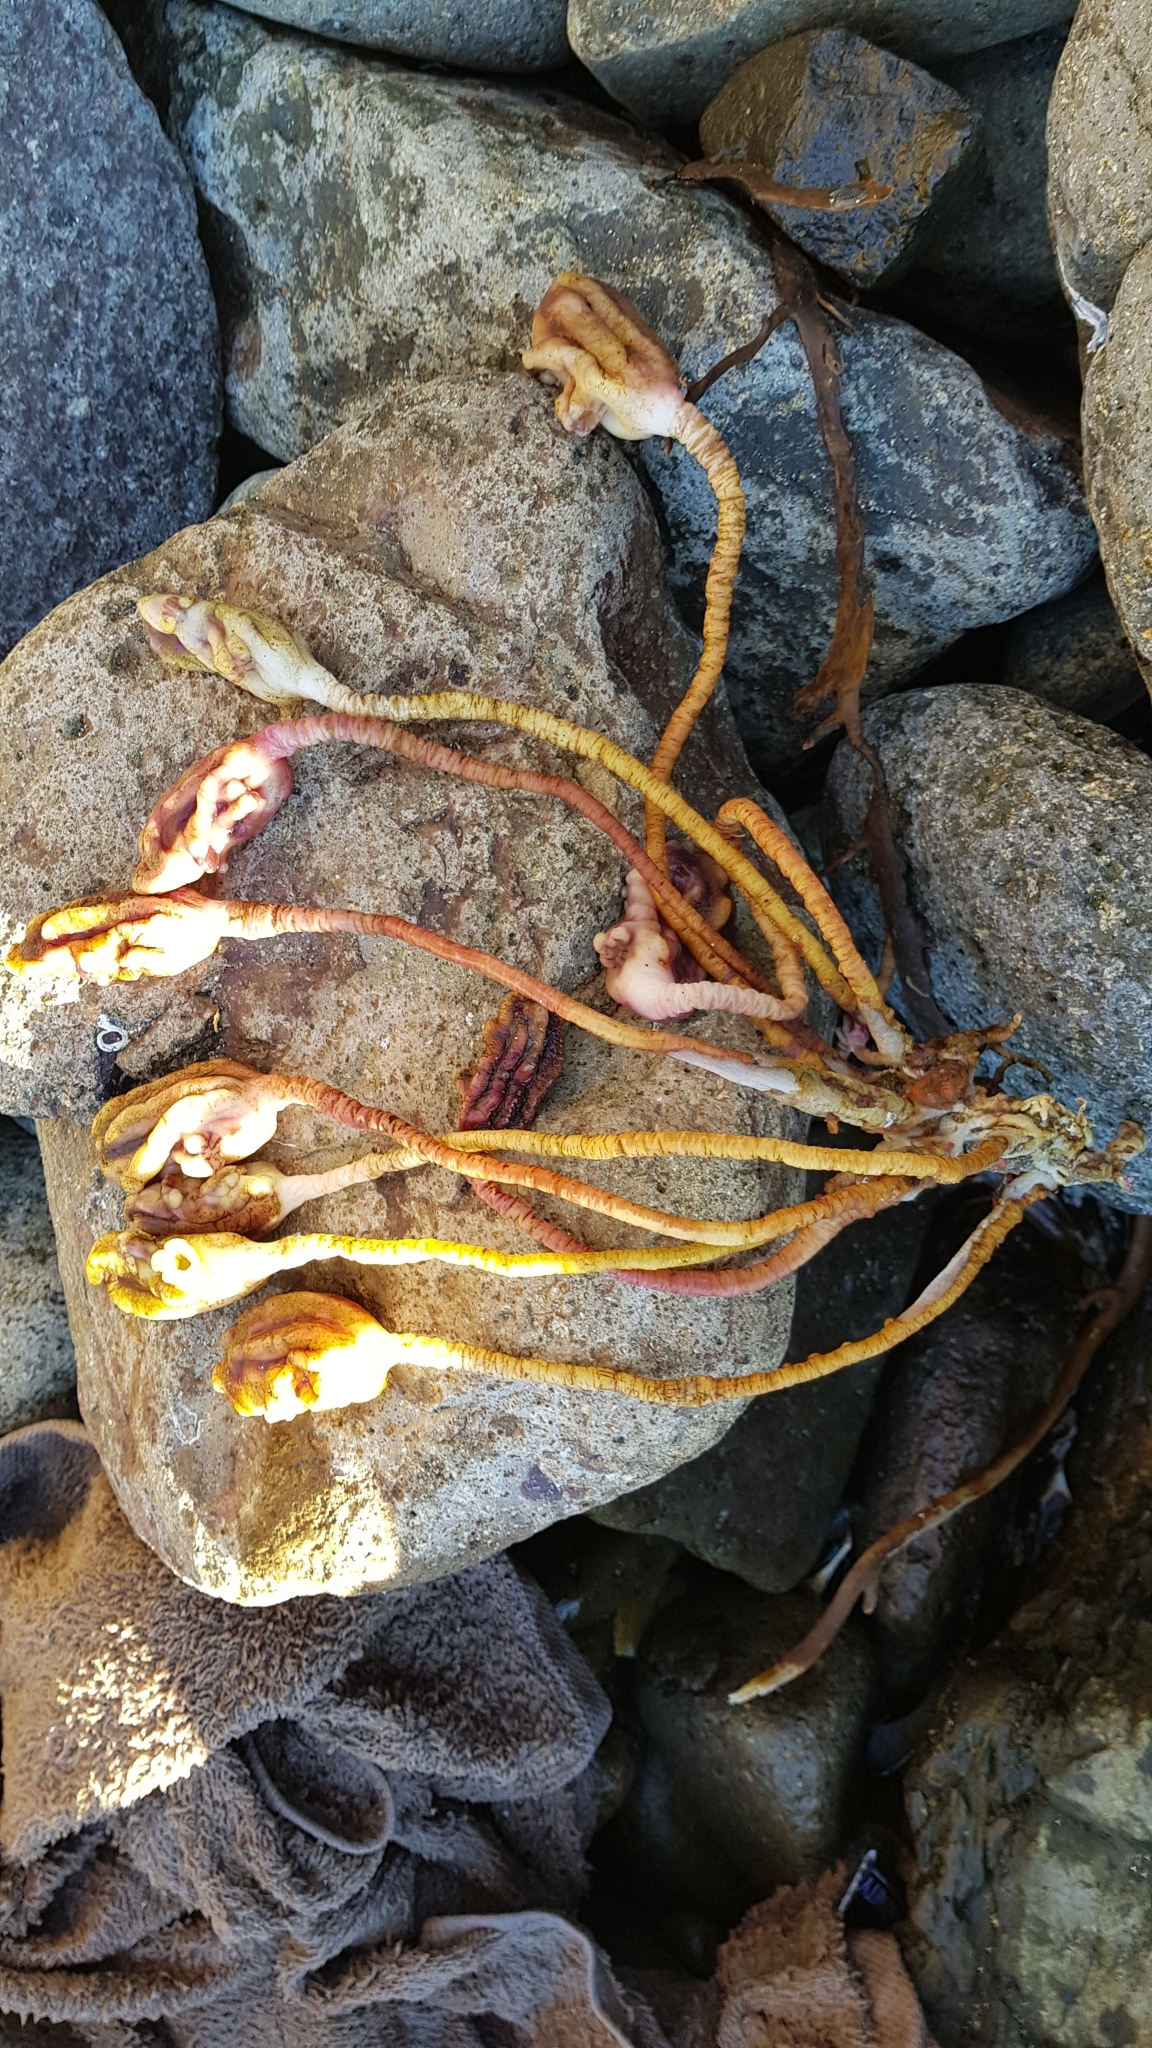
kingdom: Animalia
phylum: Chordata
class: Ascidiacea
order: Stolidobranchia
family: Pyuridae
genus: Pyura
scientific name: Pyura pachydermatina
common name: Sea tulip
